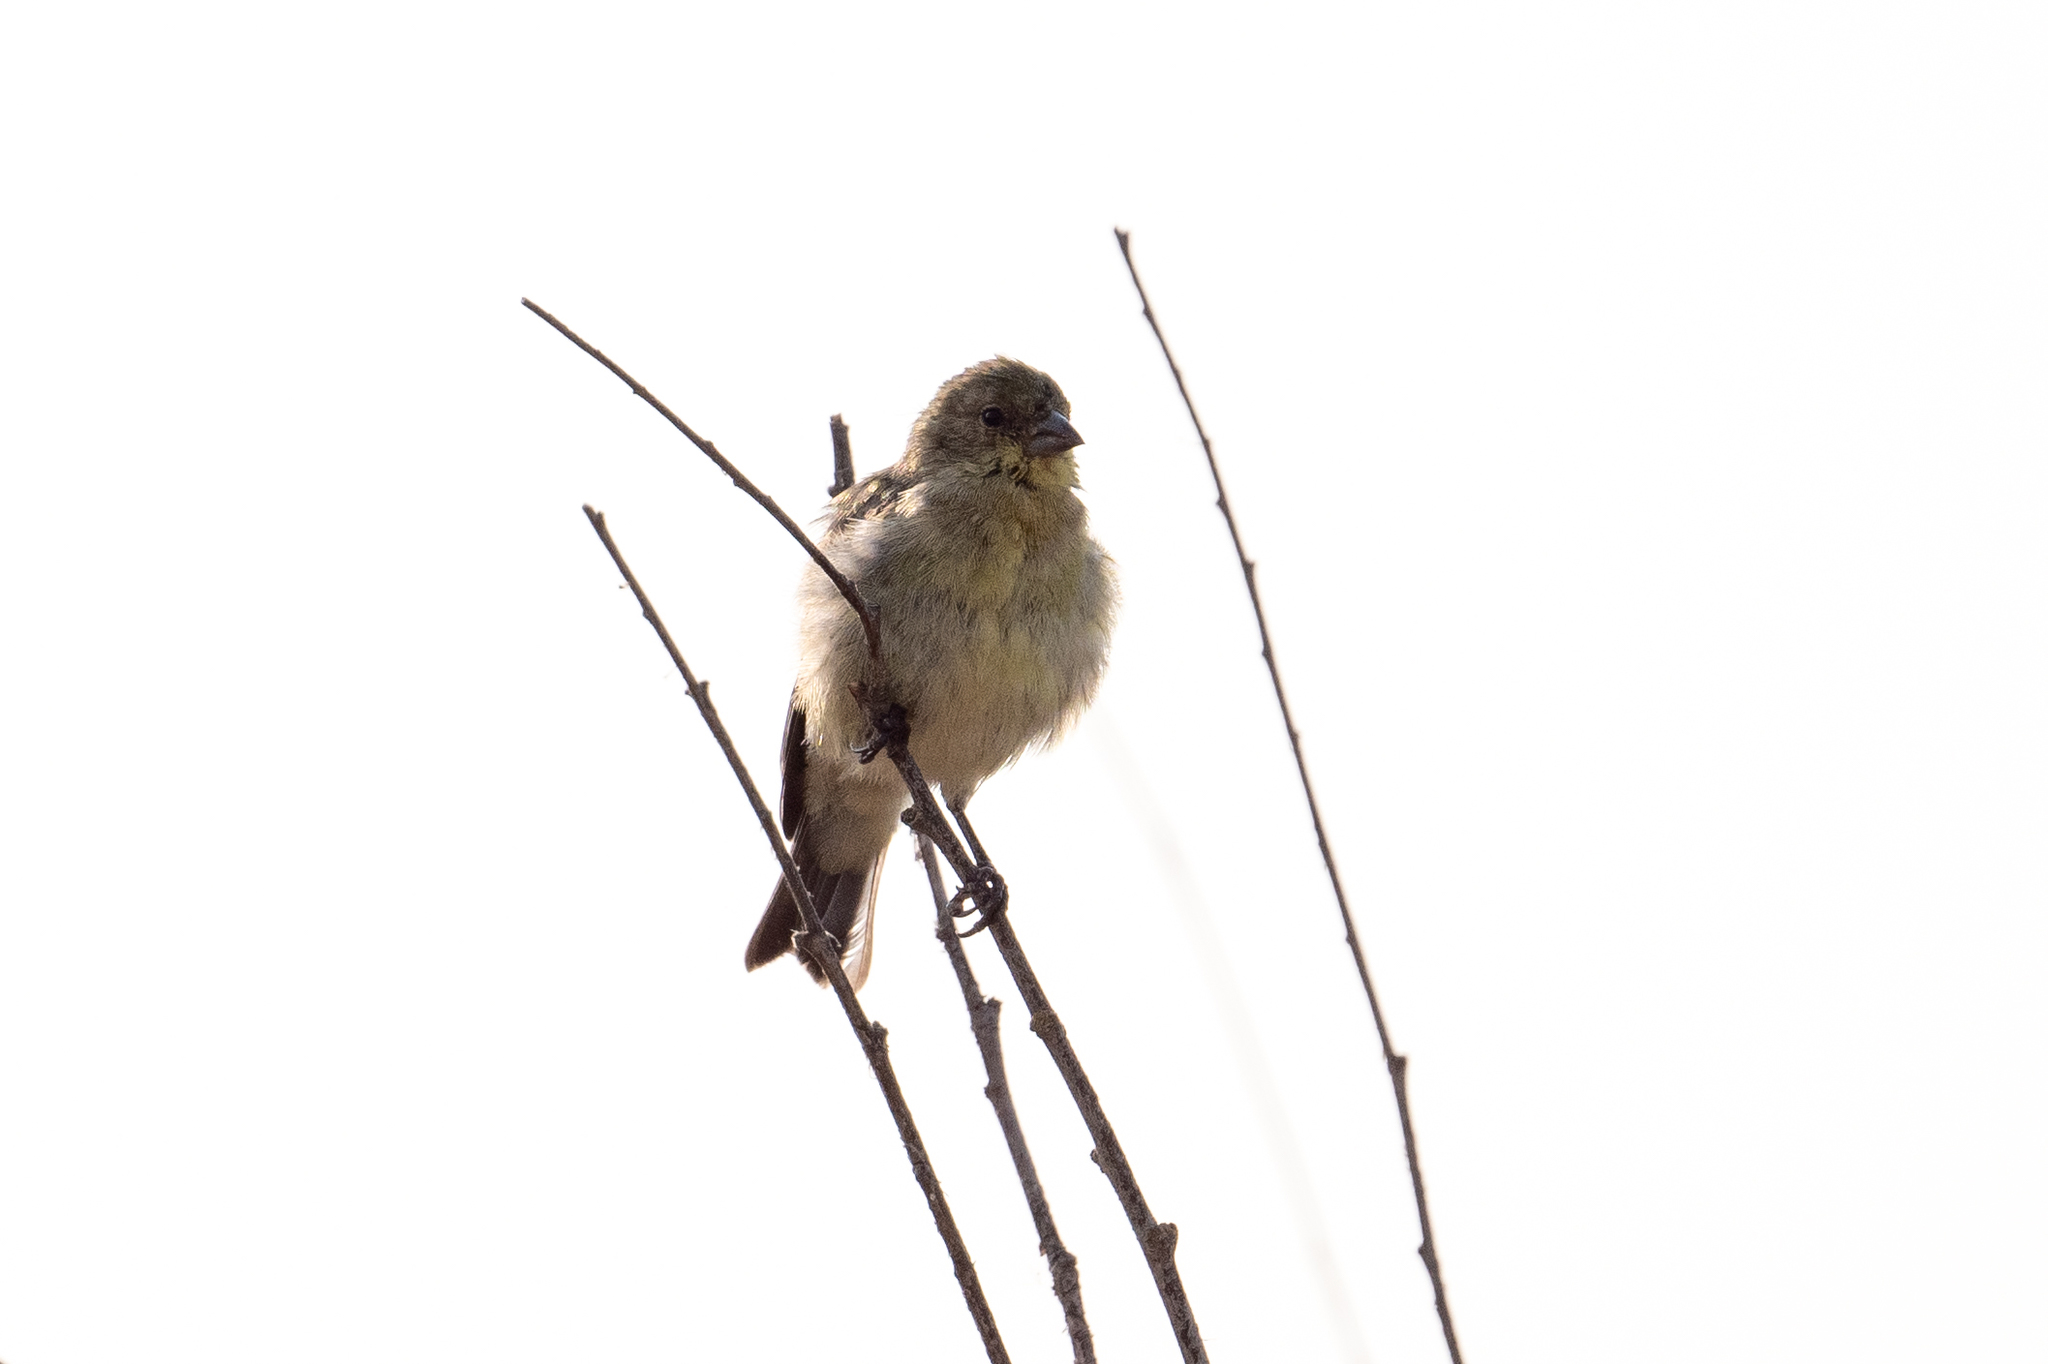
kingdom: Animalia
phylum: Chordata
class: Aves
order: Passeriformes
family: Fringillidae
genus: Spinus
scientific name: Spinus psaltria
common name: Lesser goldfinch
